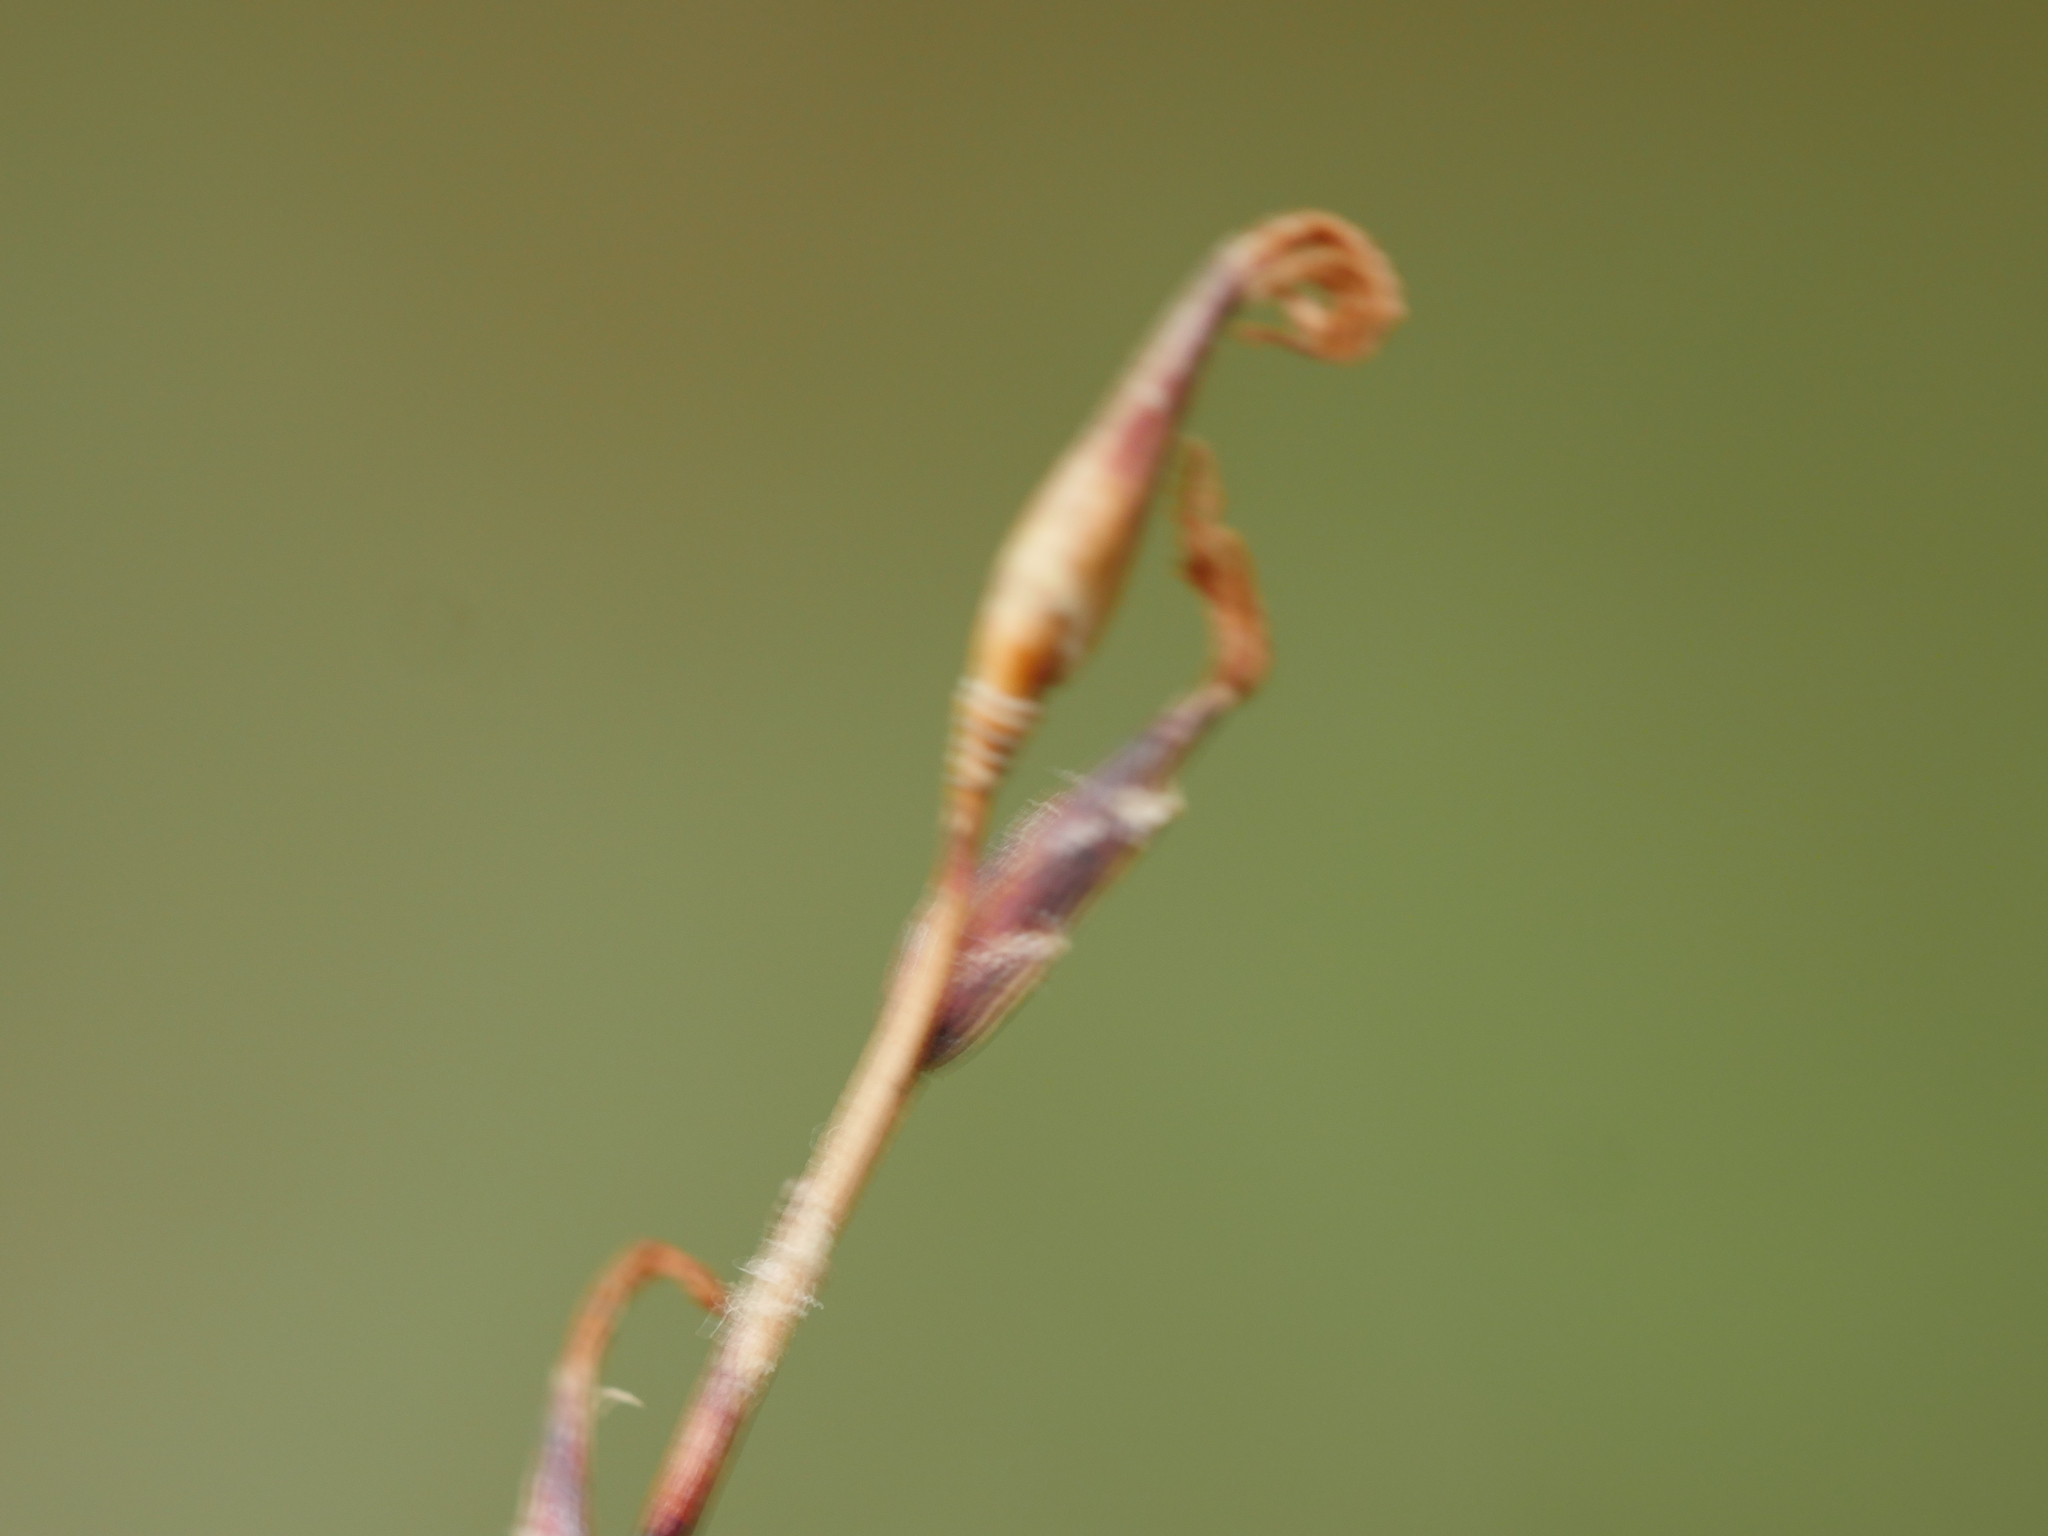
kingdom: Plantae
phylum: Tracheophyta
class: Liliopsida
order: Poales
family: Cyperaceae
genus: Schoenus
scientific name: Schoenus tendo
